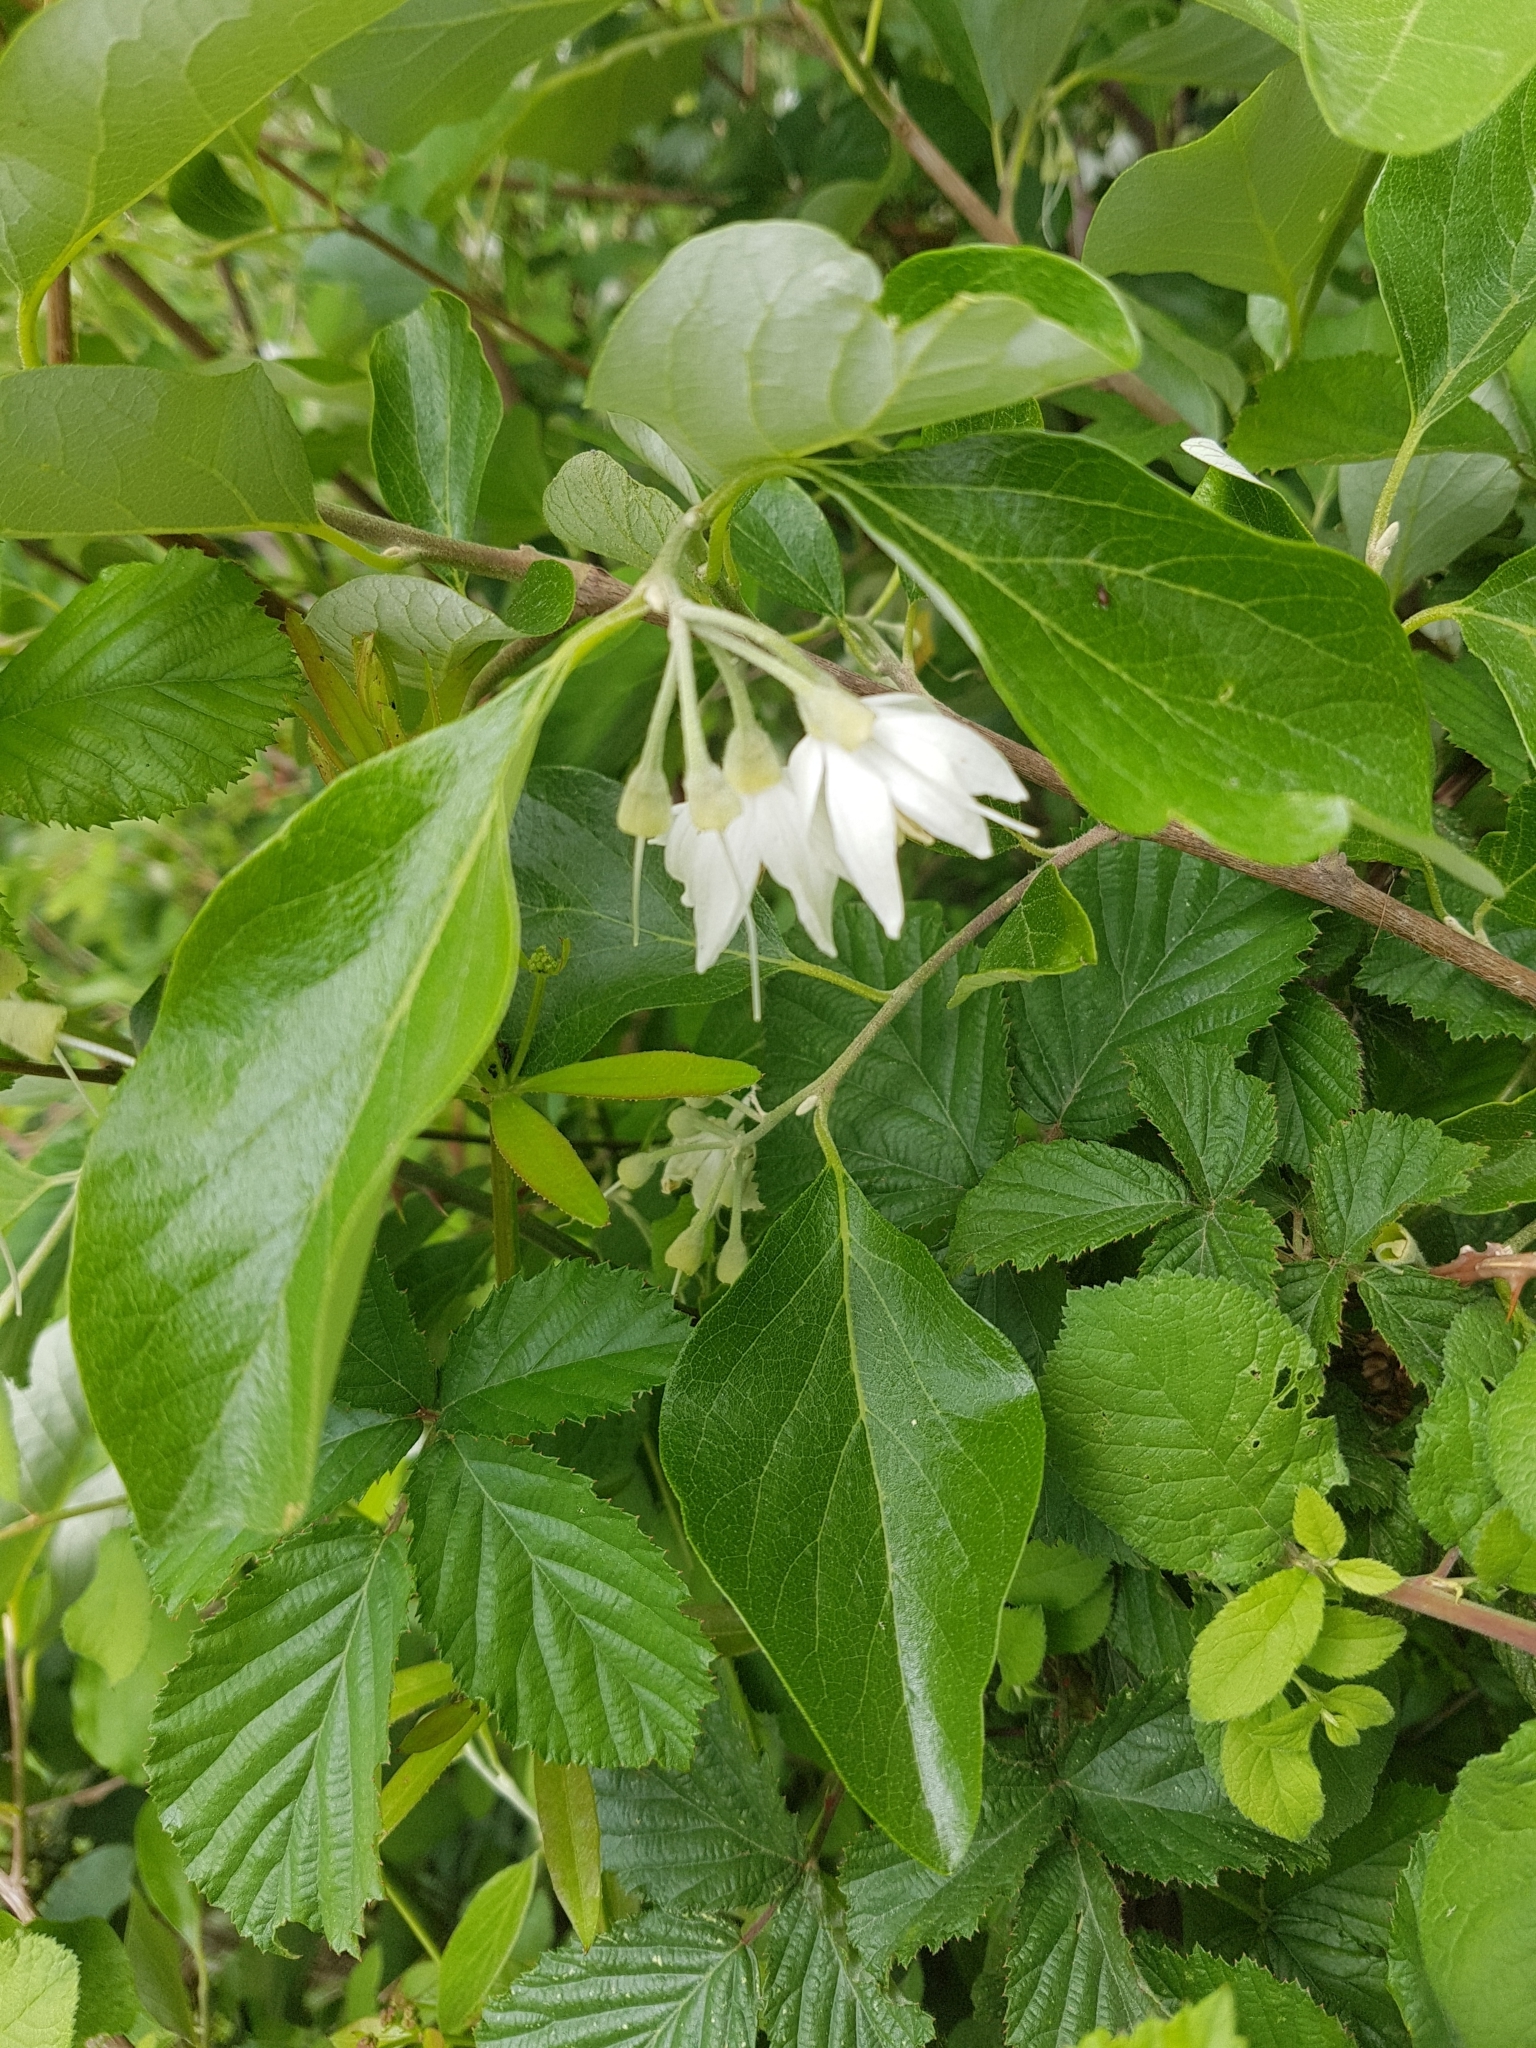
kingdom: Plantae
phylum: Tracheophyta
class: Magnoliopsida
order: Ericales
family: Styracaceae
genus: Styrax
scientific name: Styrax officinalis
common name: Storax
